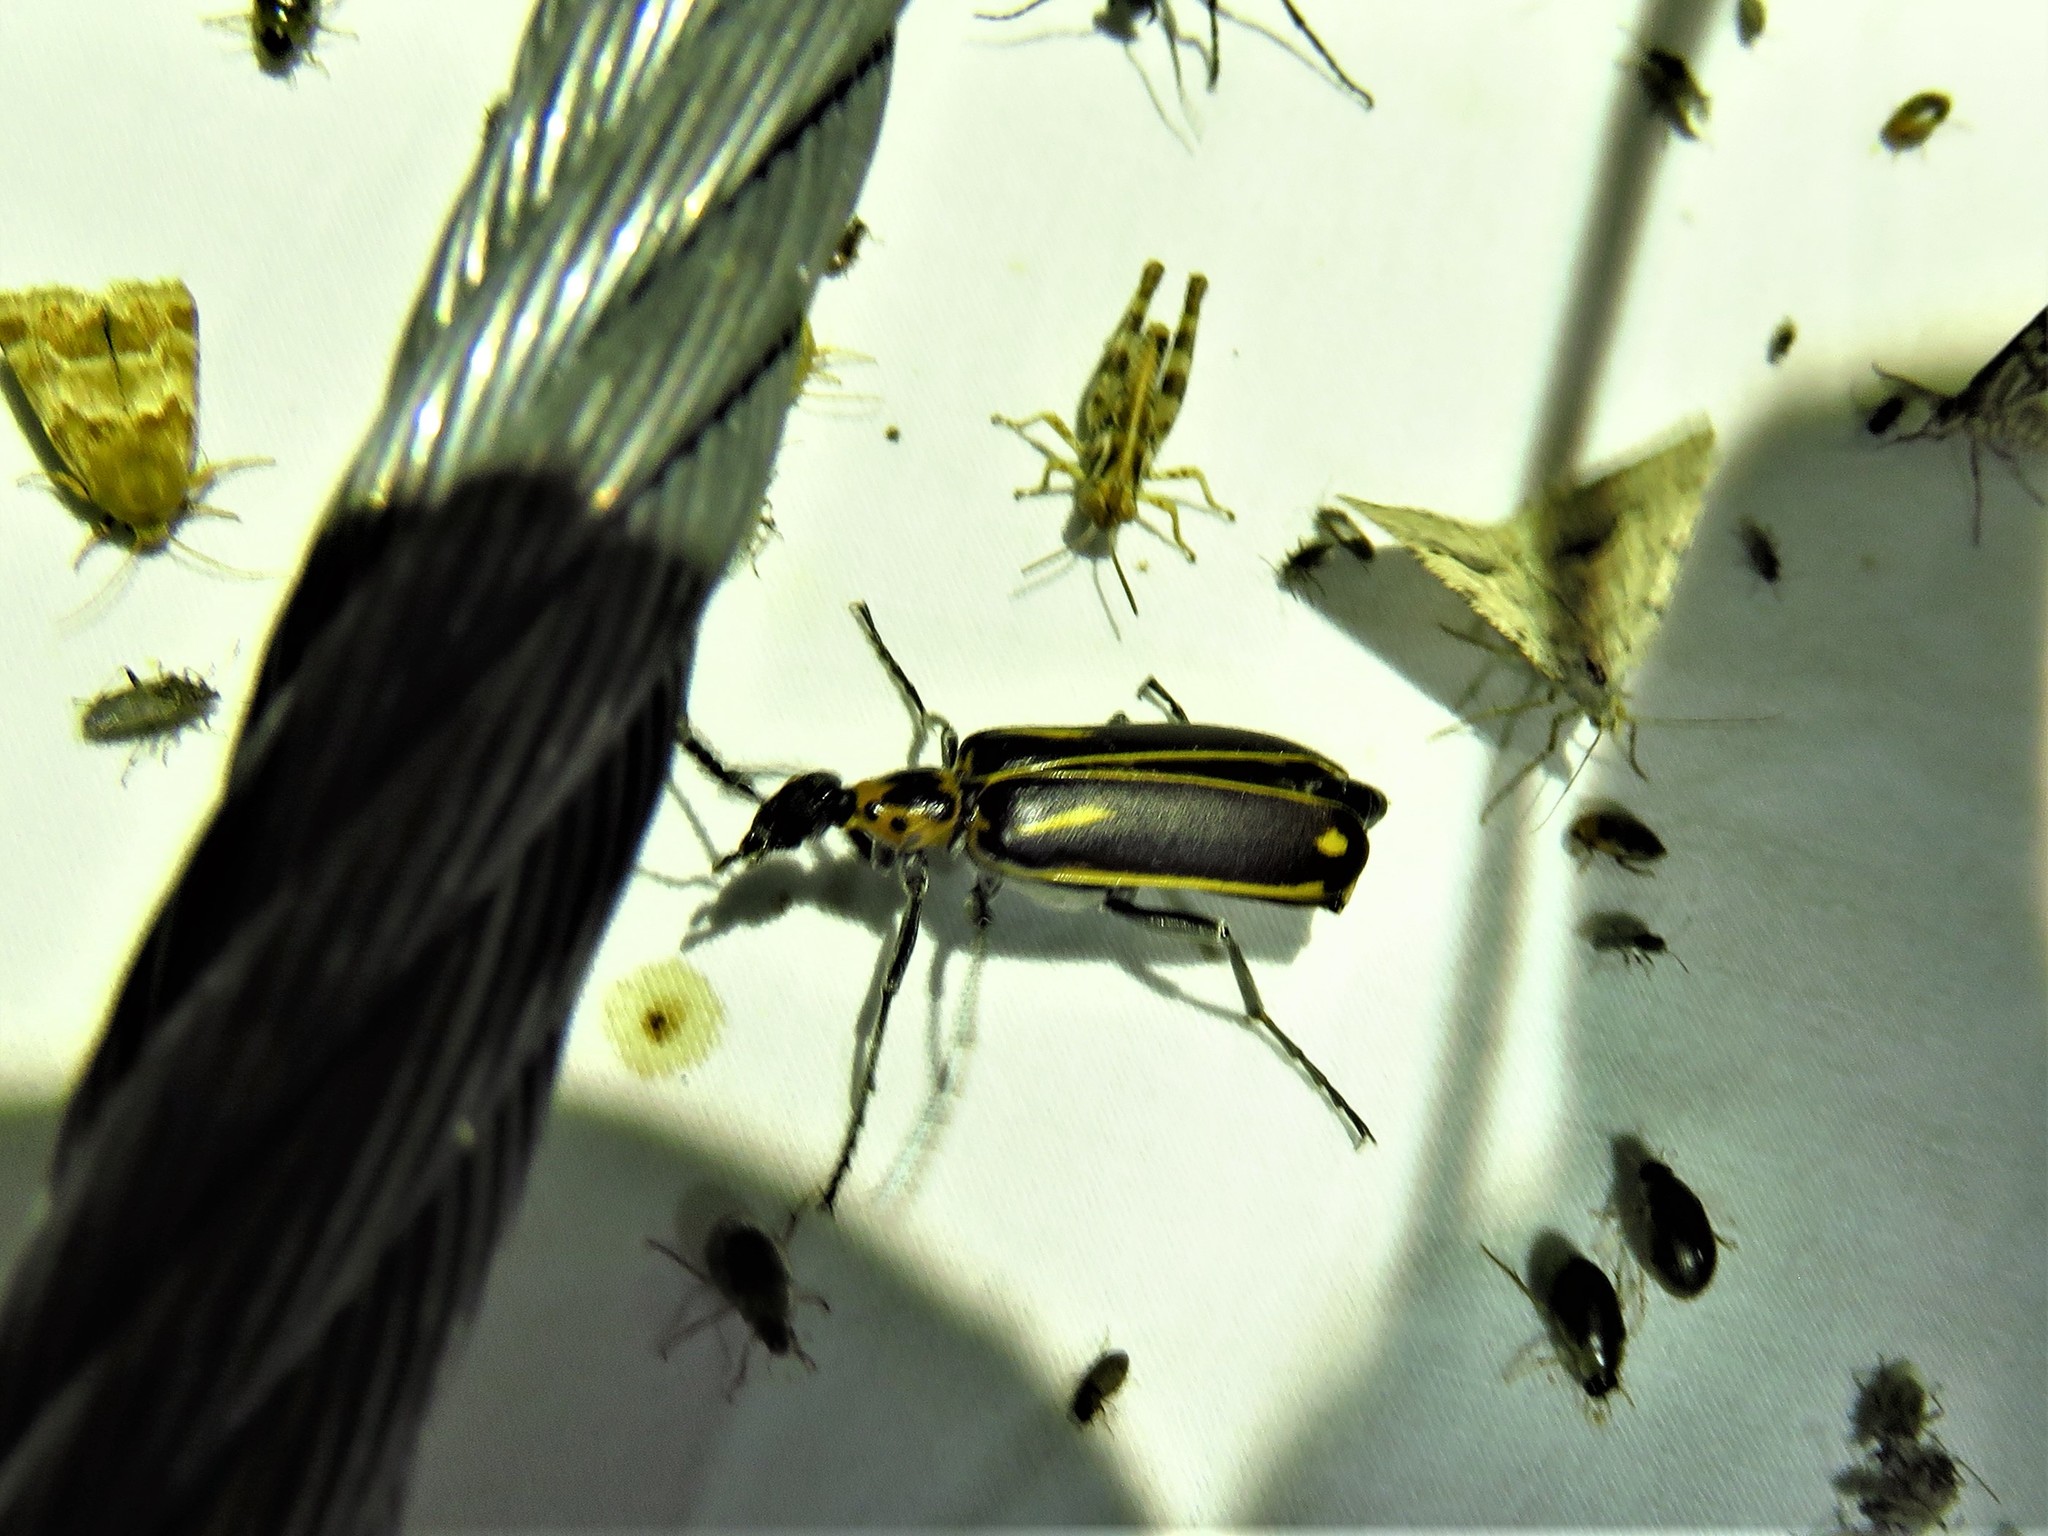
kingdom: Animalia
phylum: Arthropoda
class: Insecta
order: Coleoptera
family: Meloidae
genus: Pyrota
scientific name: Pyrota insulata
